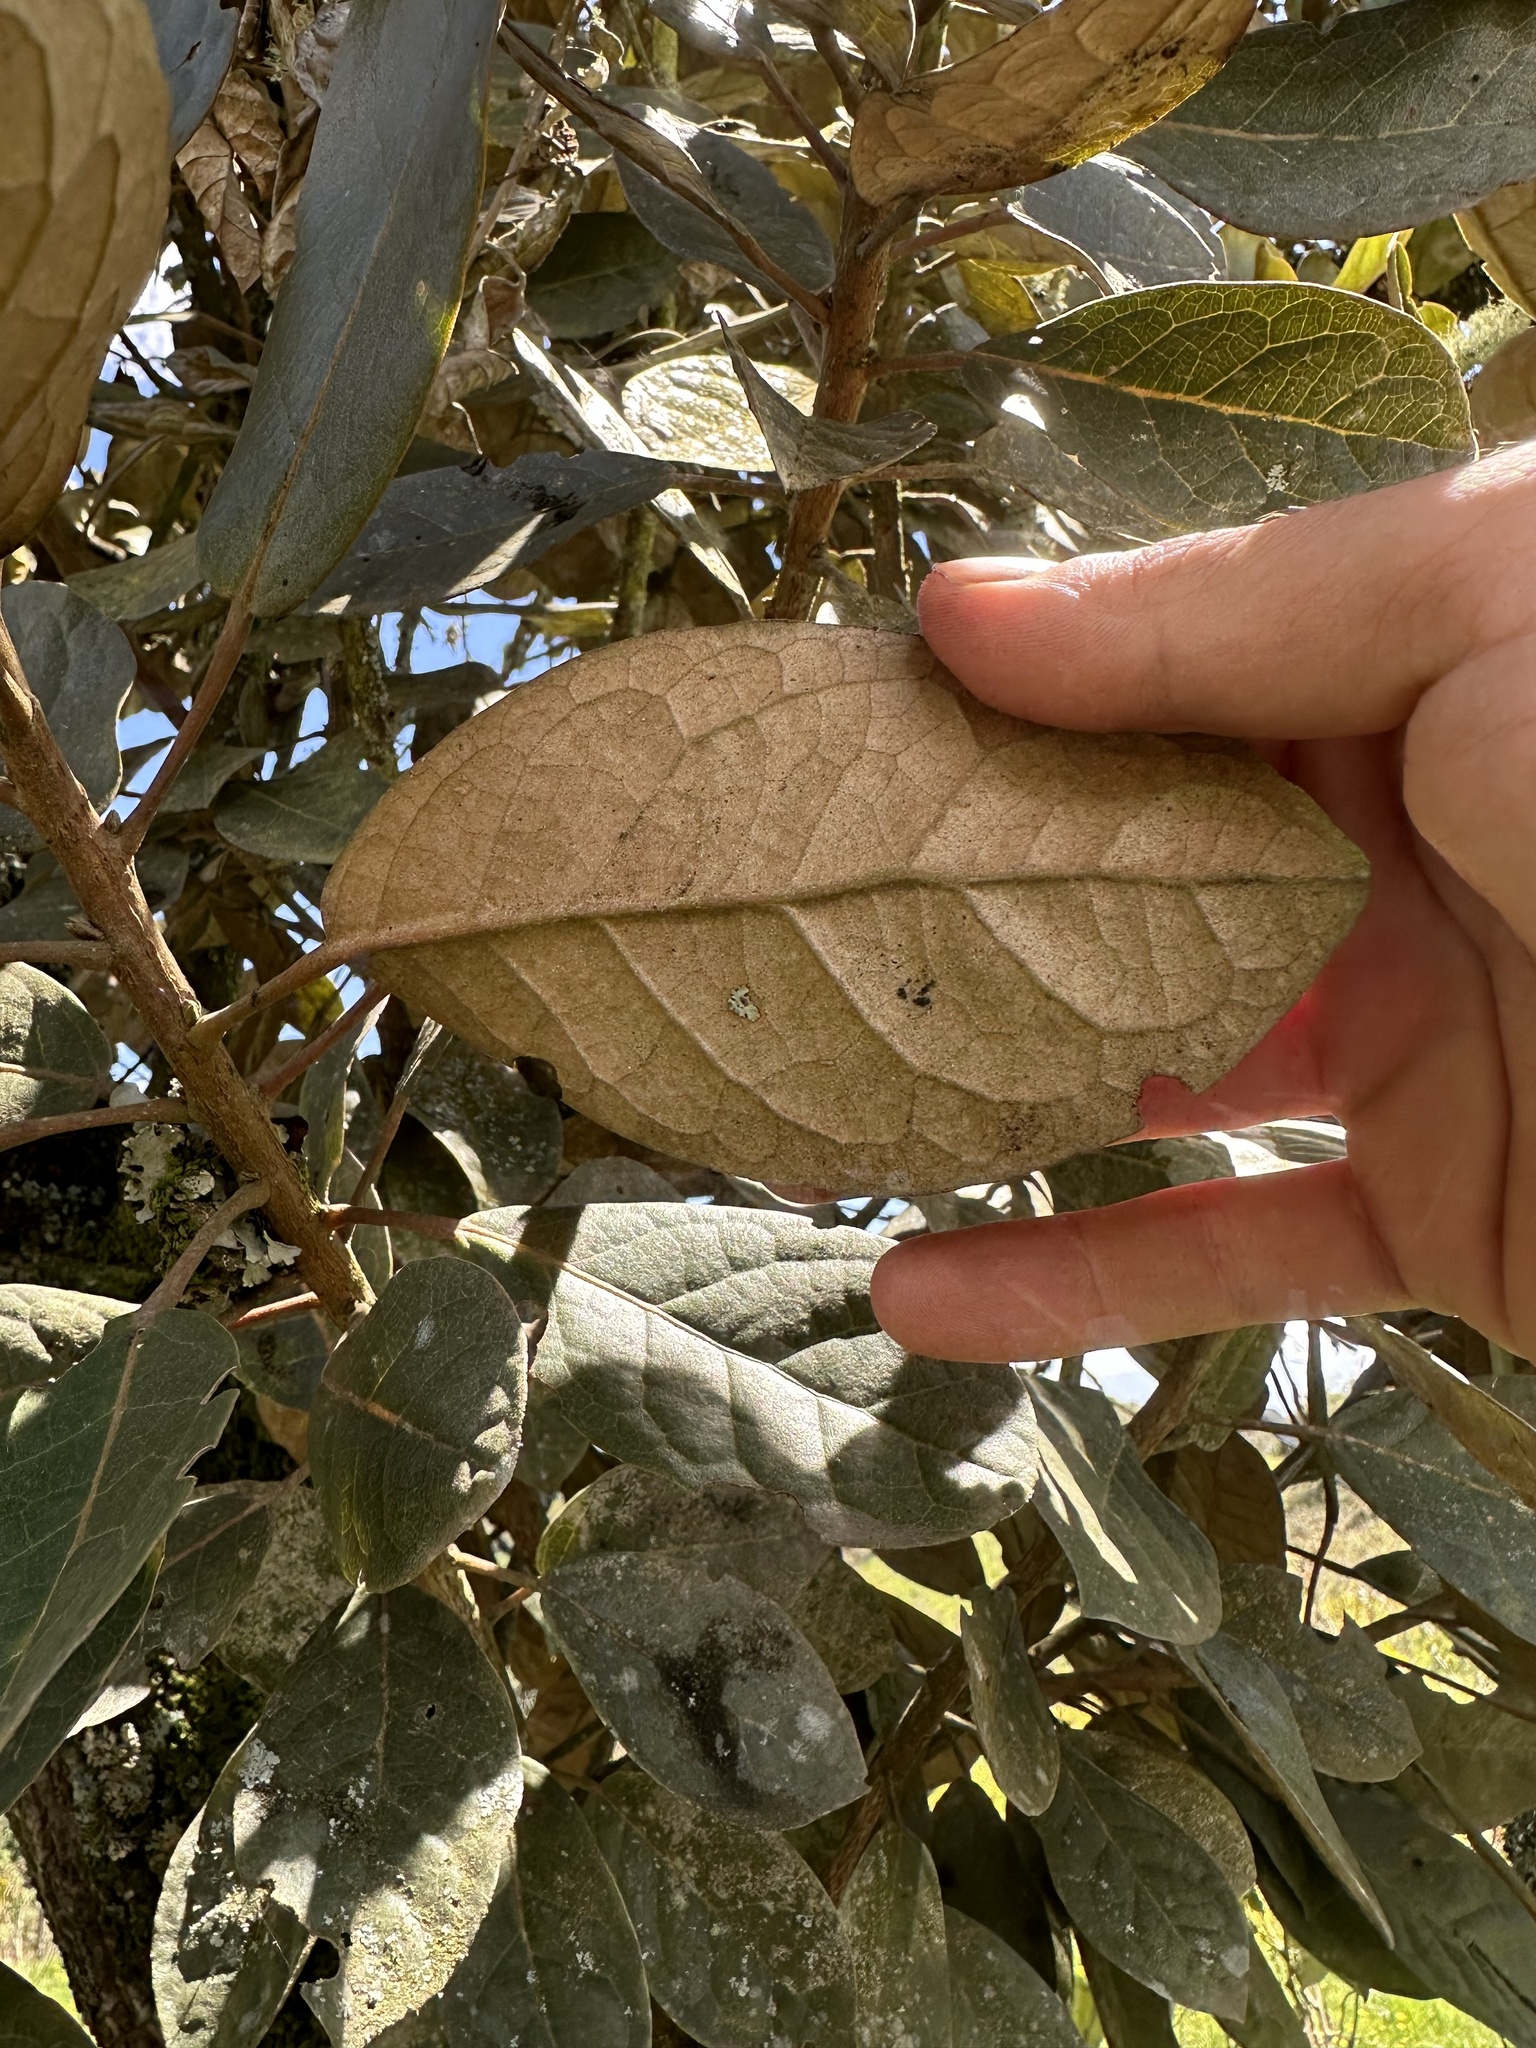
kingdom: Plantae
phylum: Tracheophyta
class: Magnoliopsida
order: Malpighiales
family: Phyllanthaceae
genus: Hieronyma
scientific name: Hieronyma rufa
